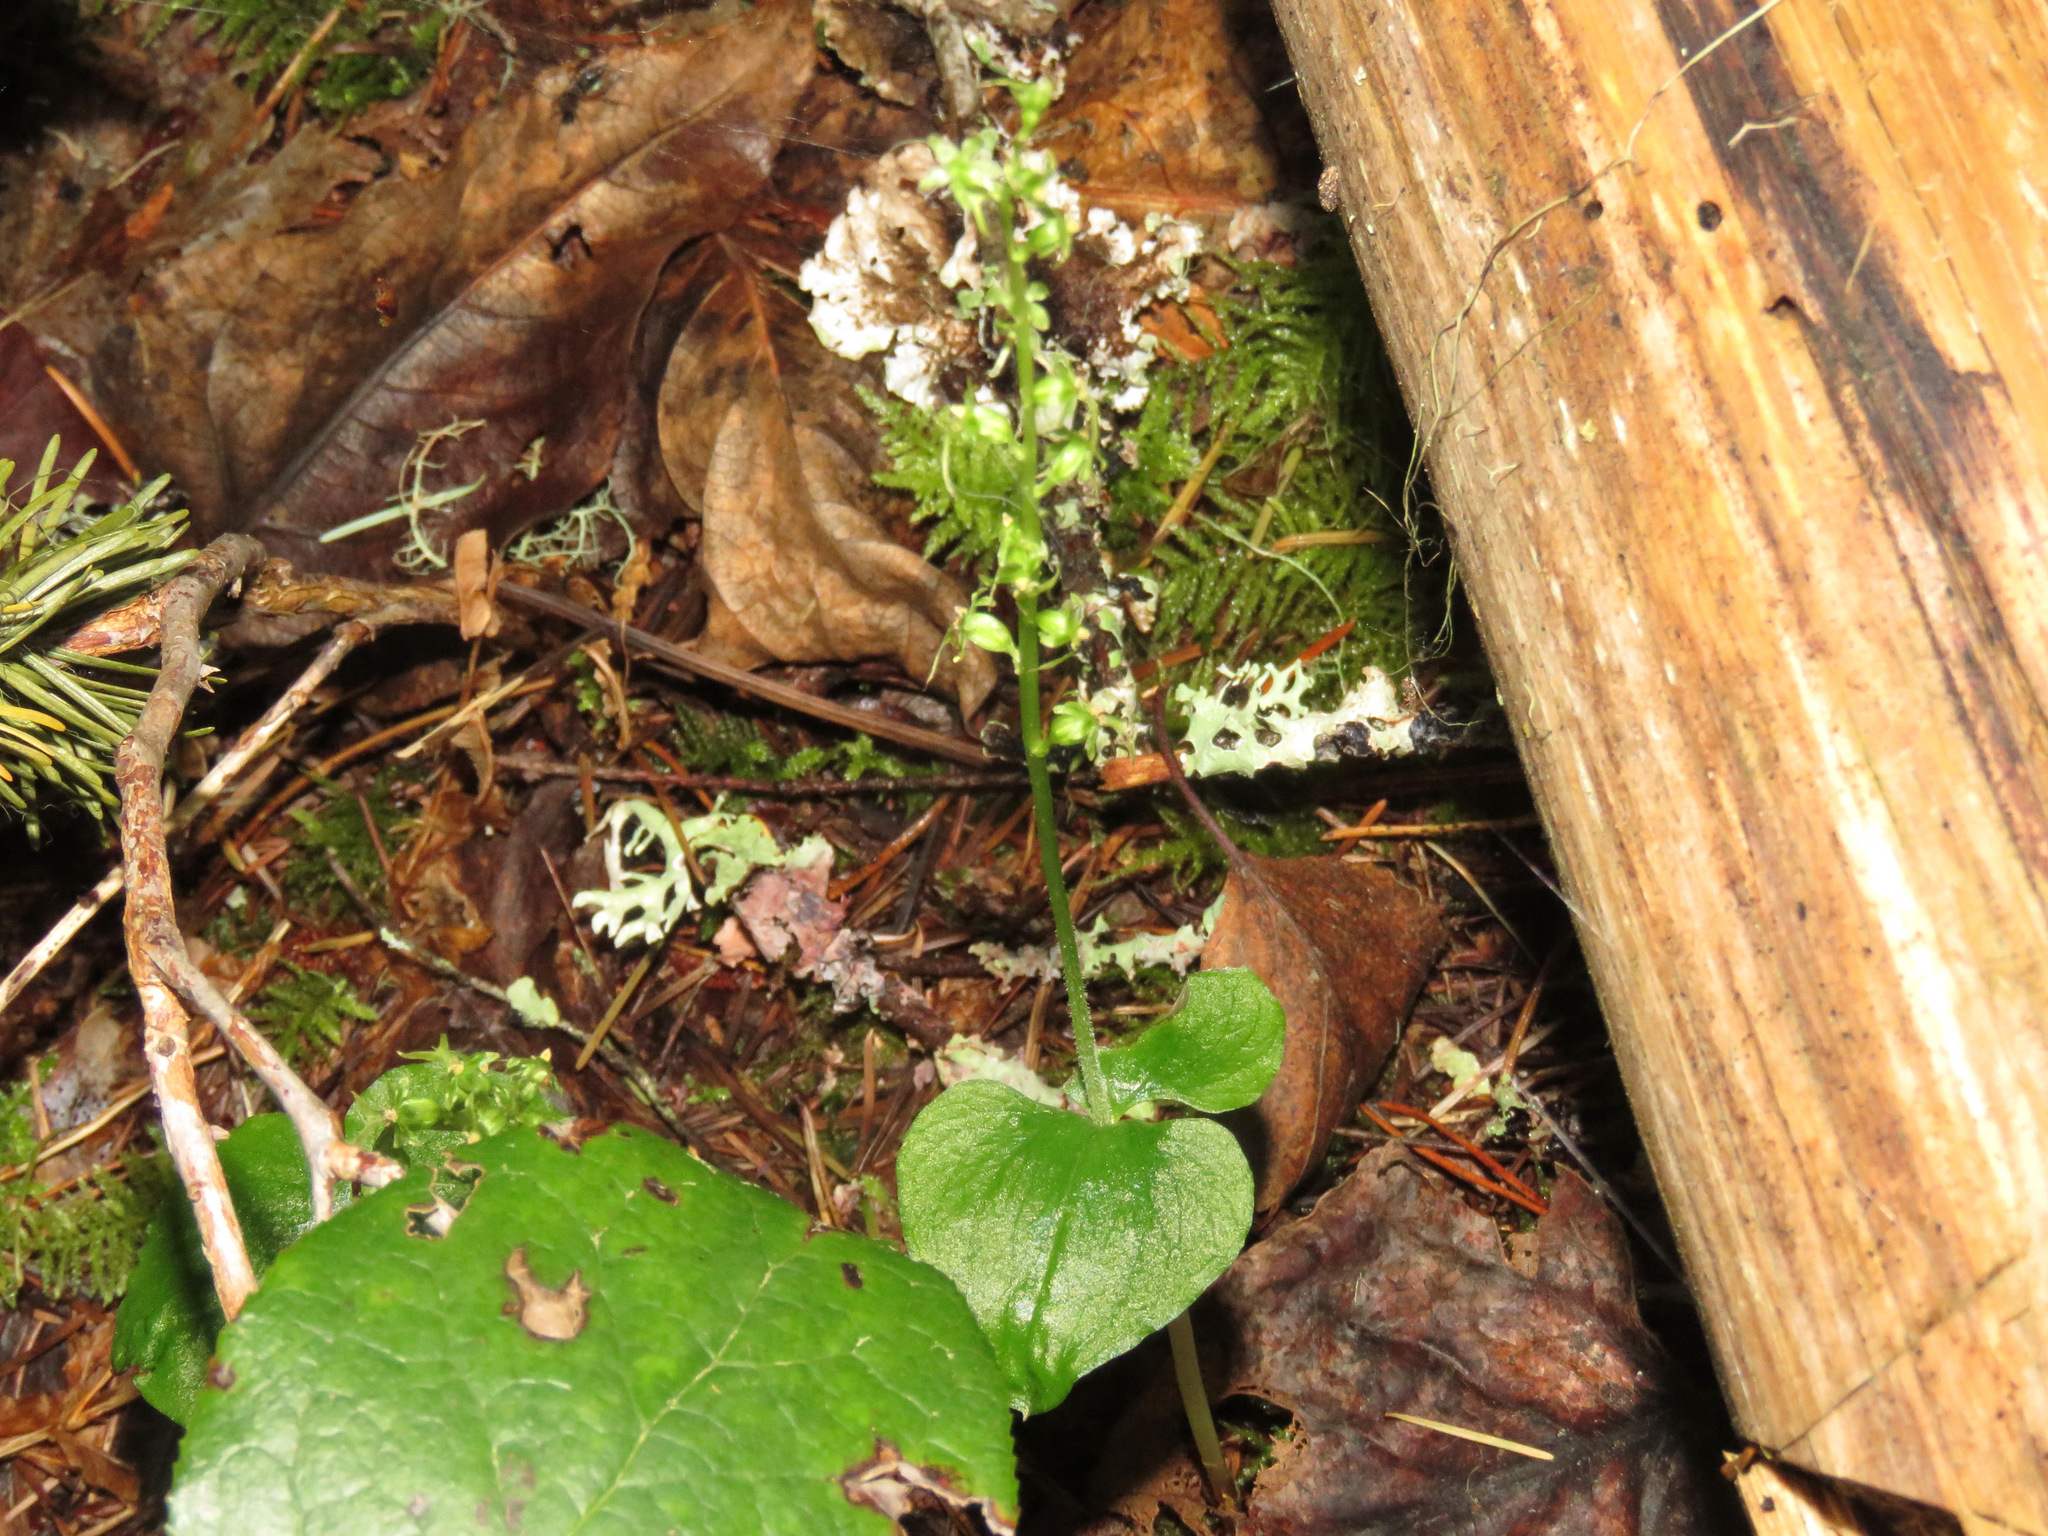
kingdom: Plantae
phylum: Tracheophyta
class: Liliopsida
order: Asparagales
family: Orchidaceae
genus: Neottia
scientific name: Neottia cordata
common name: Lesser twayblade
